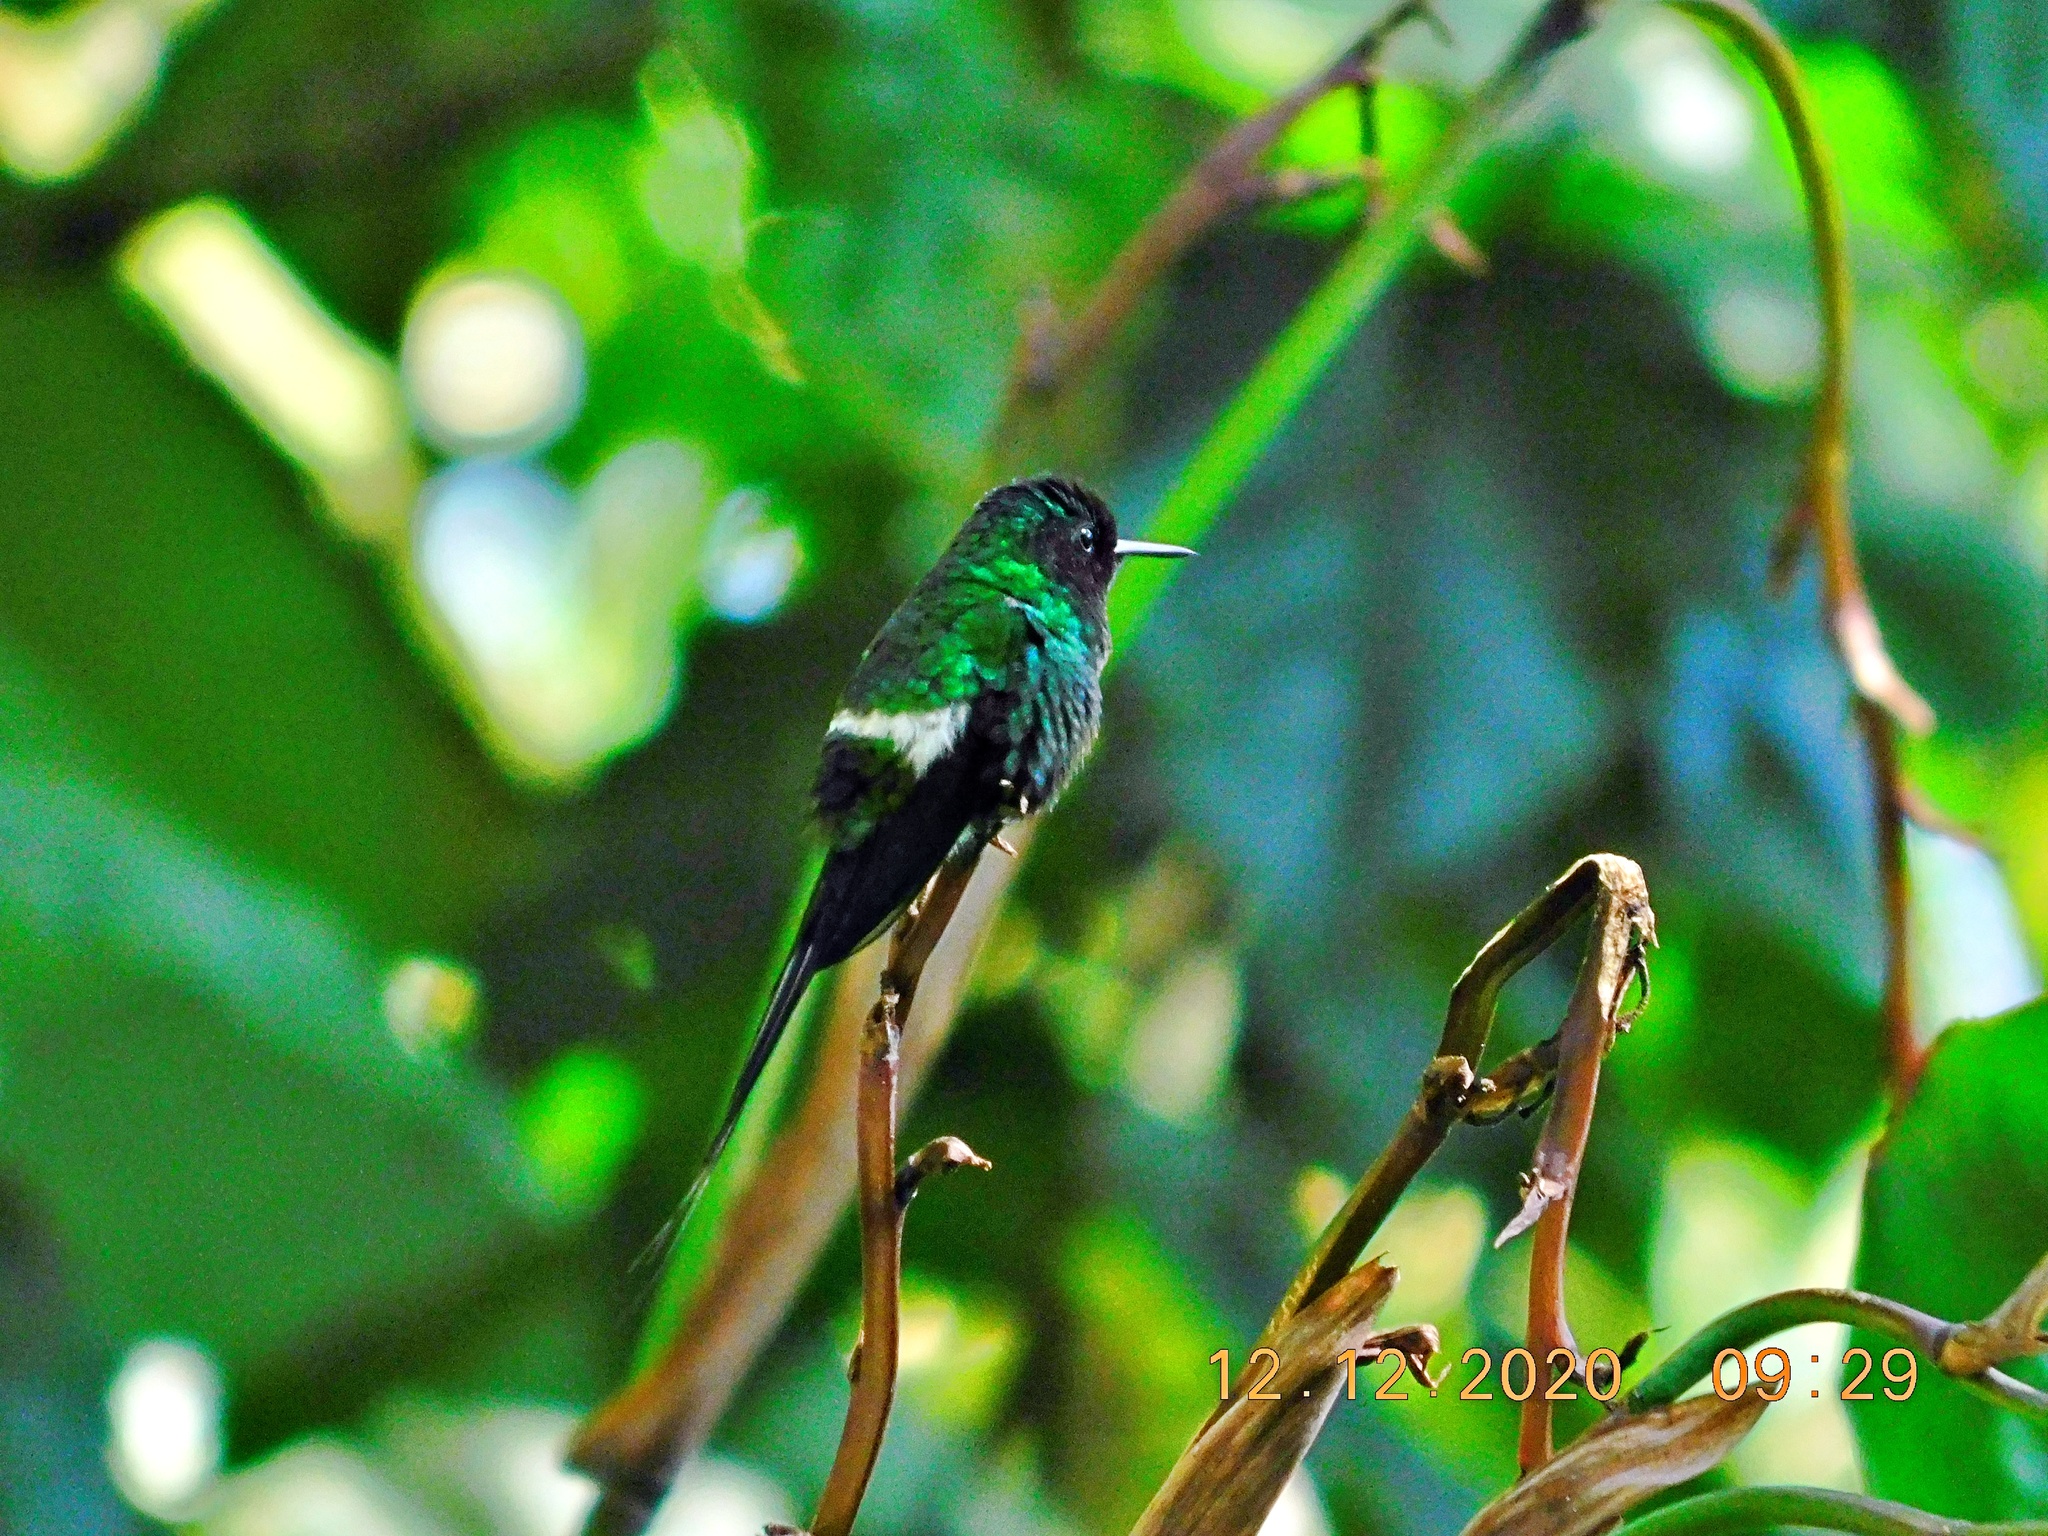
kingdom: Animalia
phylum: Chordata
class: Aves
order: Apodiformes
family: Trochilidae
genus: Discosura
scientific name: Discosura conversii
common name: Green thorntail
